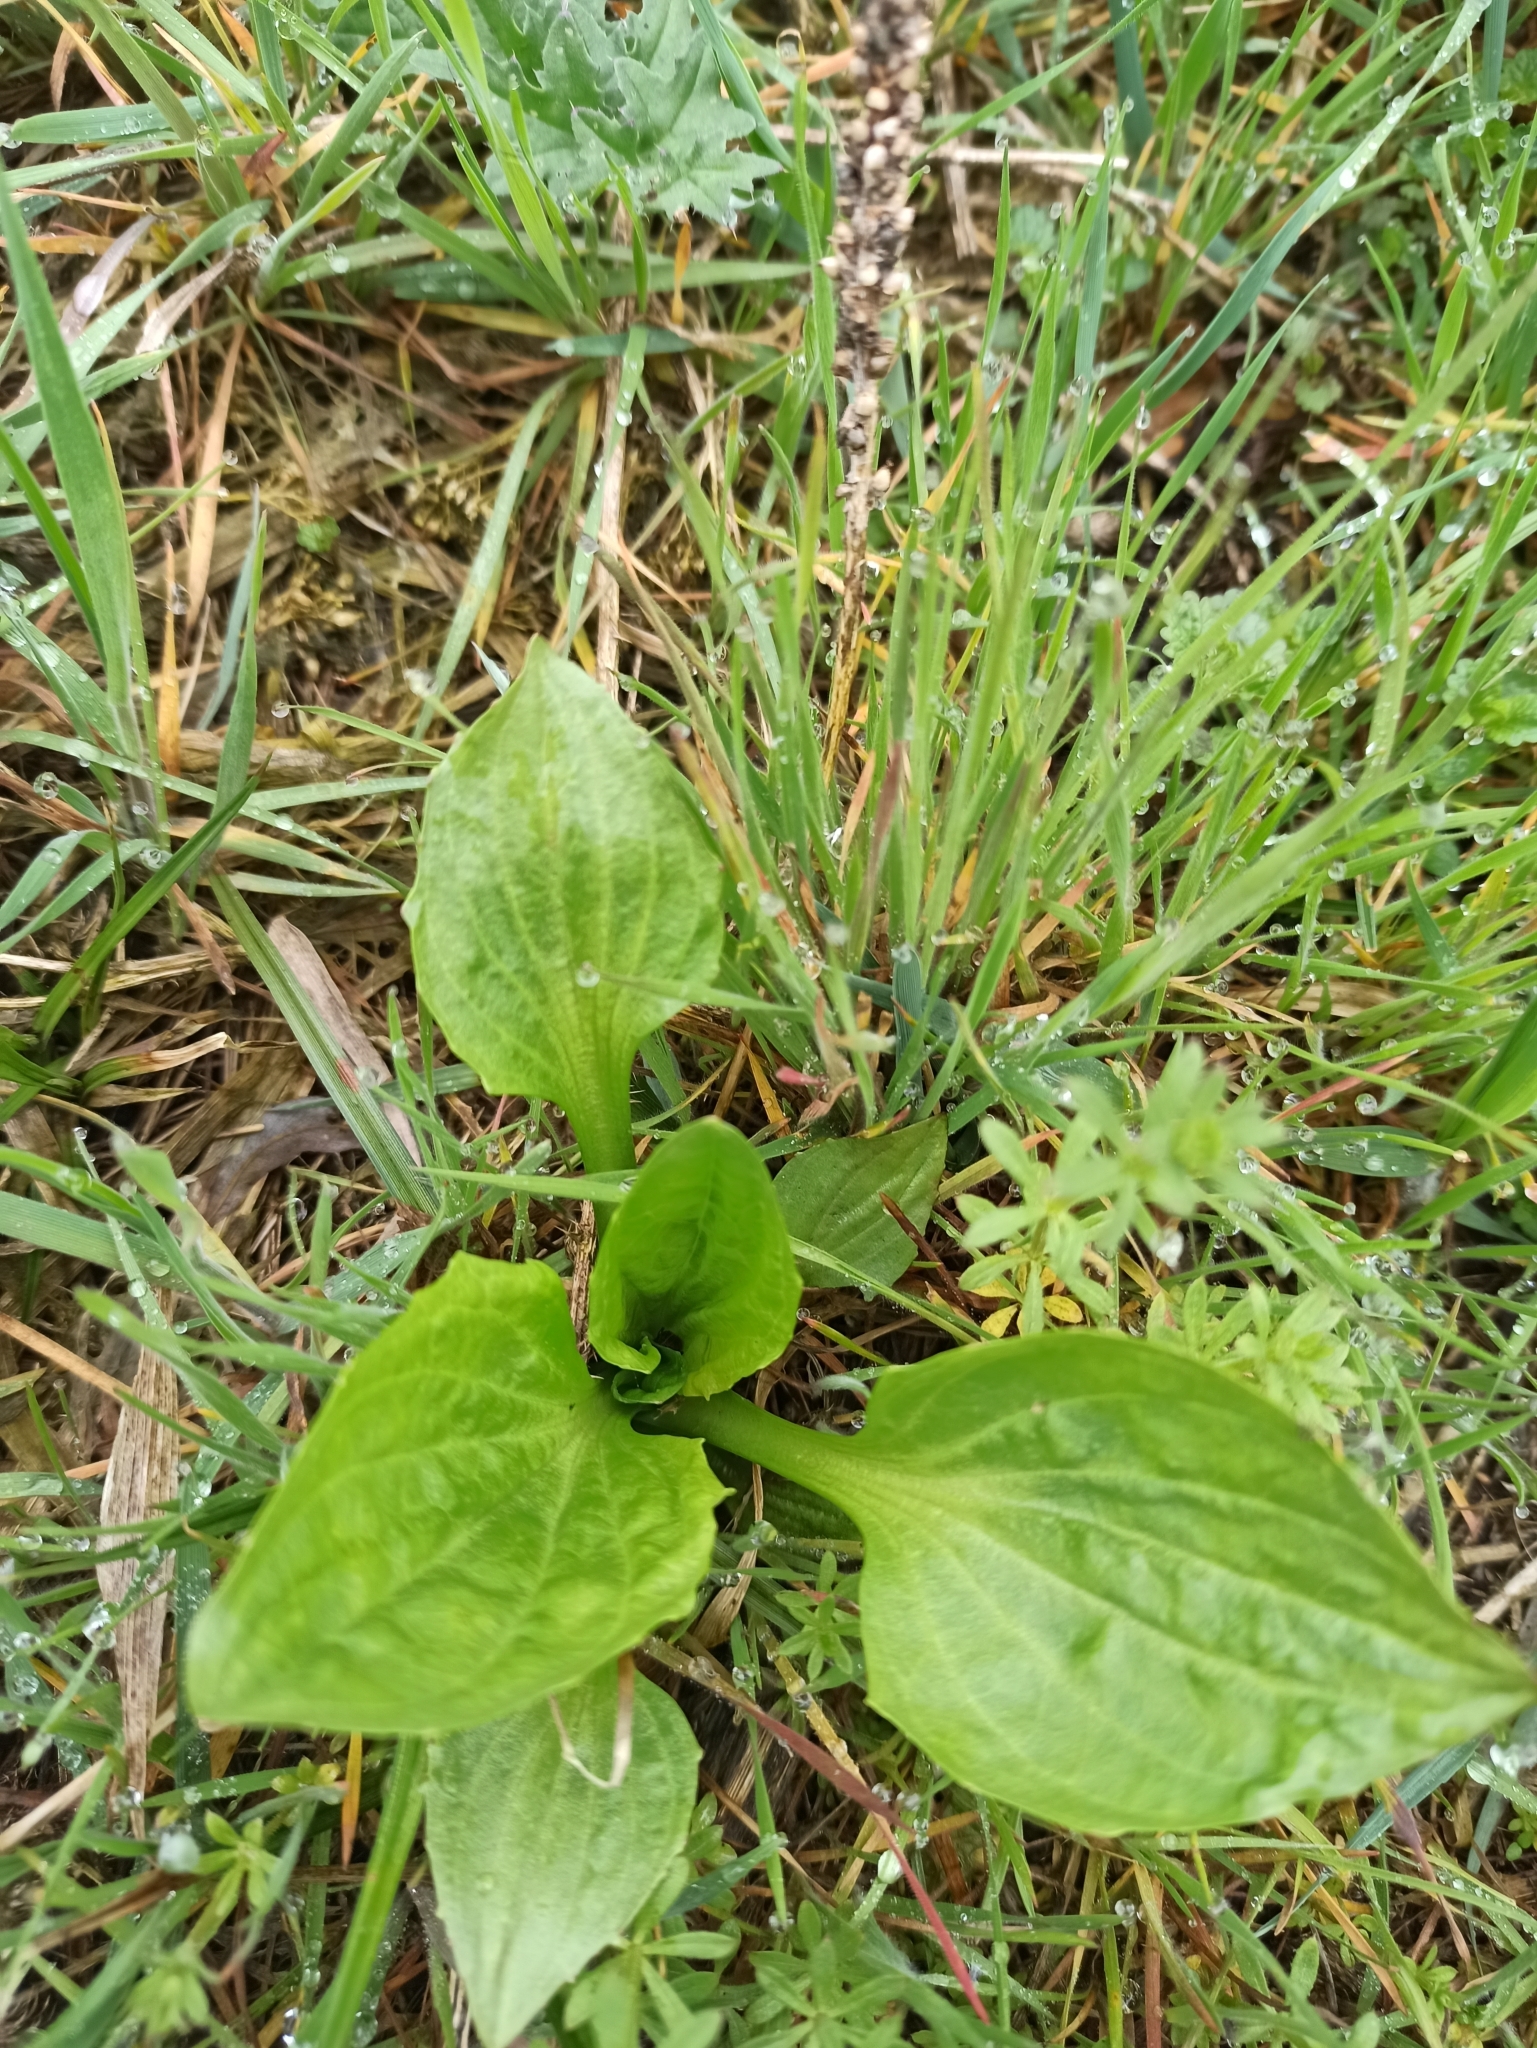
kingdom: Plantae
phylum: Tracheophyta
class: Magnoliopsida
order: Lamiales
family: Plantaginaceae
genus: Plantago
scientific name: Plantago major
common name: Common plantain
